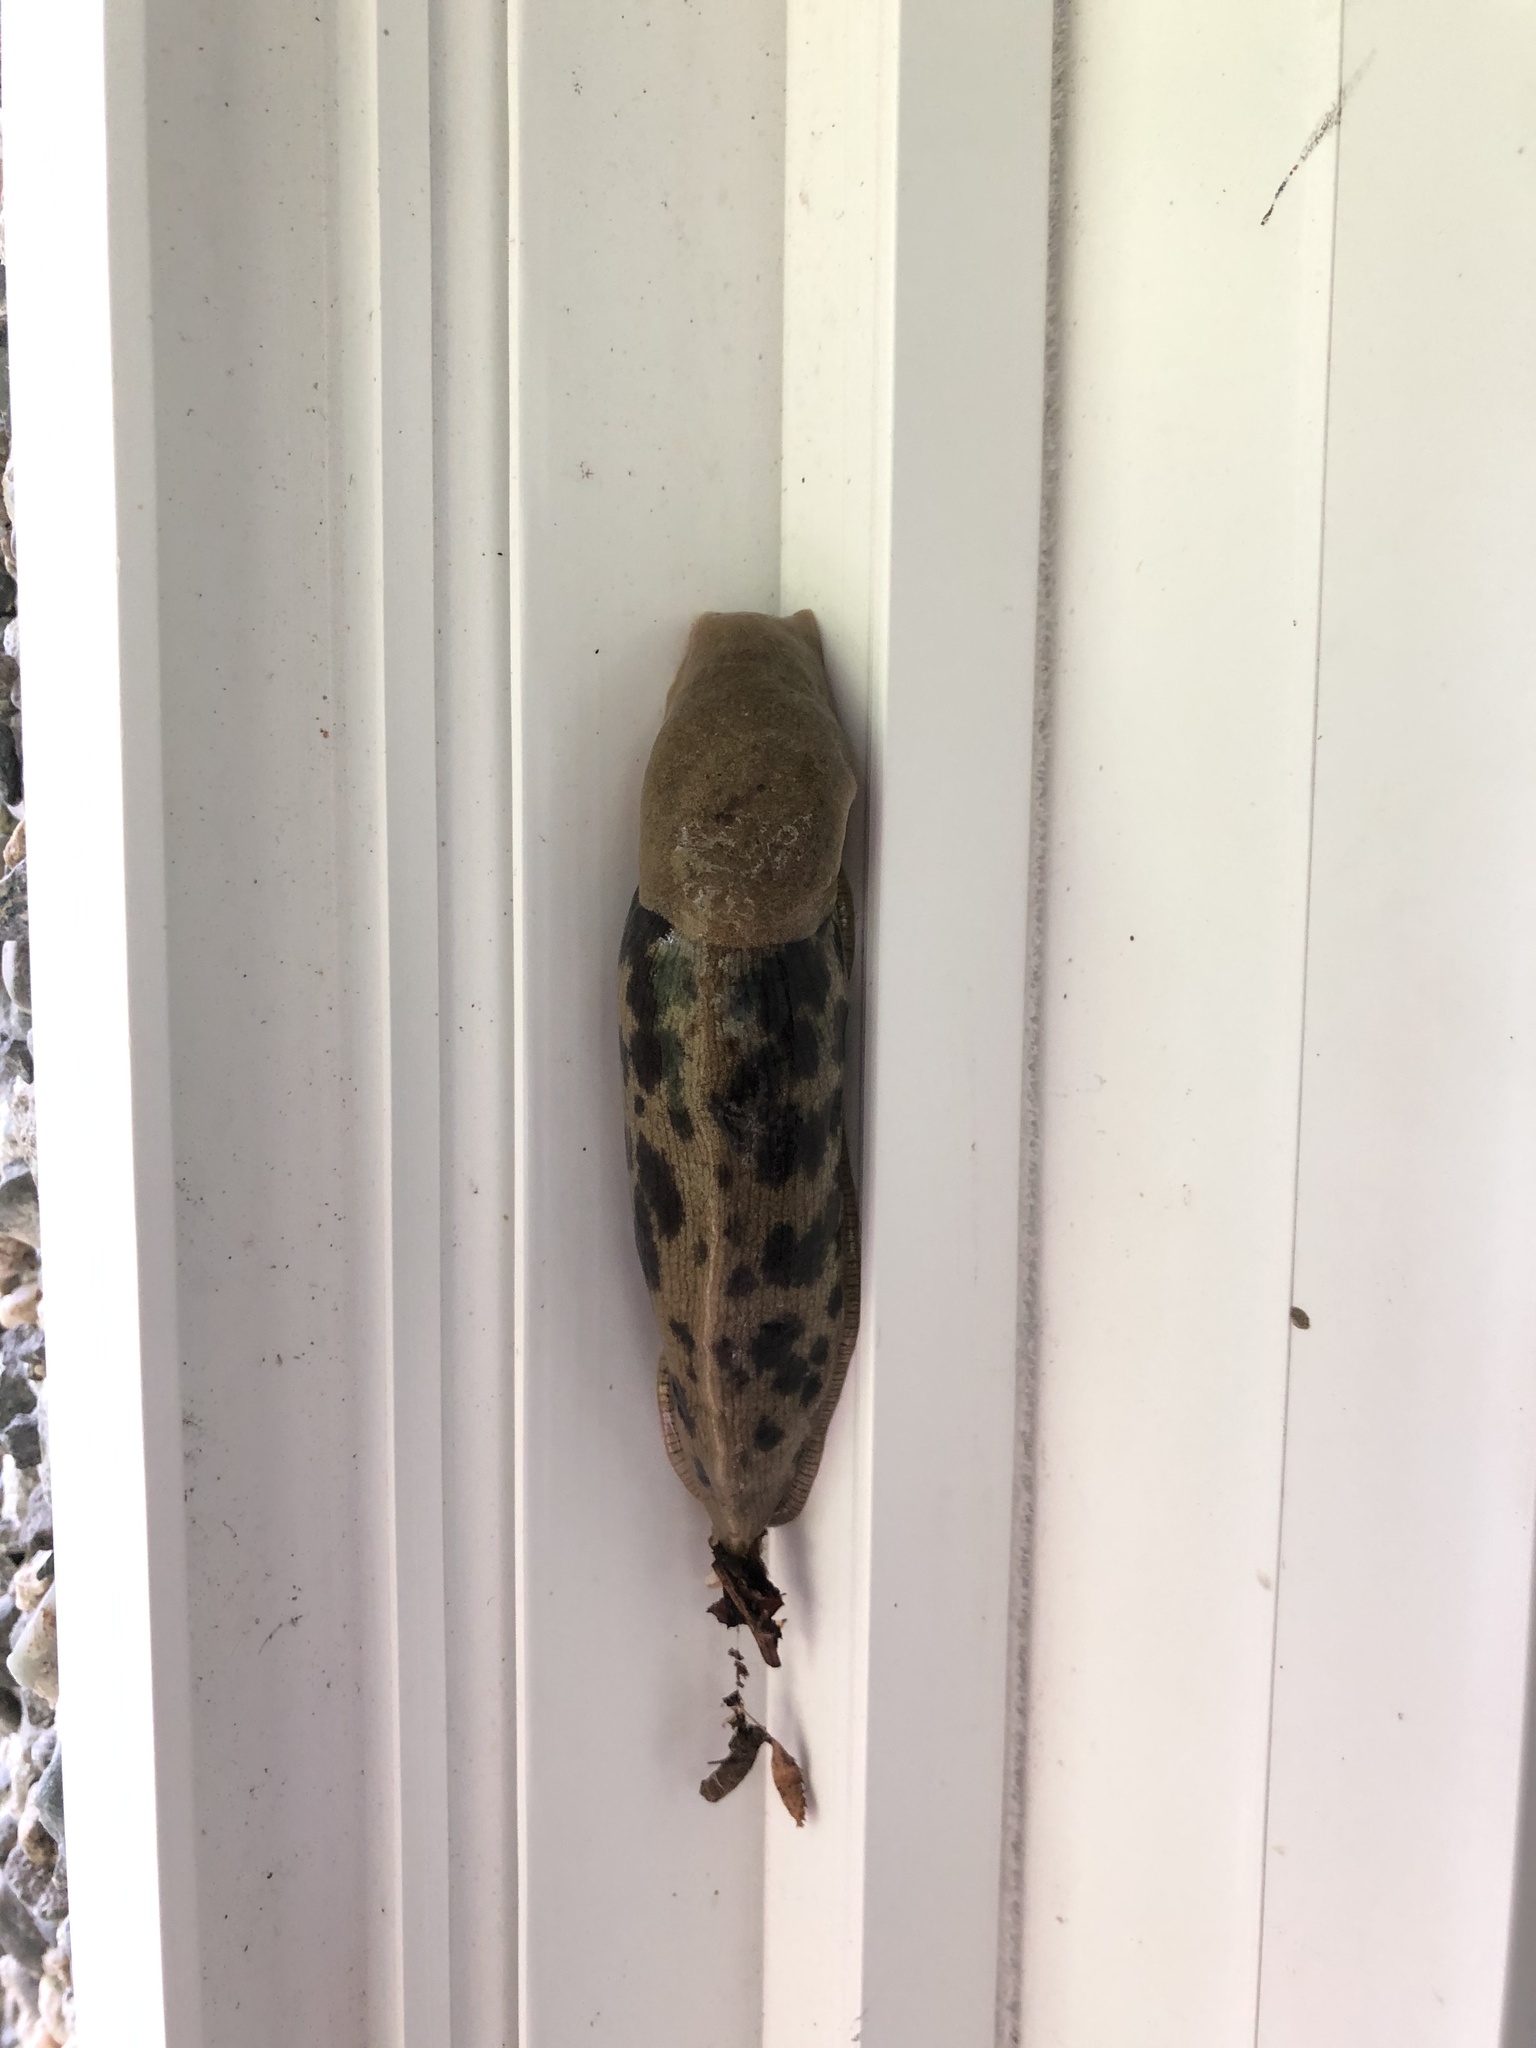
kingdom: Animalia
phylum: Mollusca
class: Gastropoda
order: Stylommatophora
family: Ariolimacidae
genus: Ariolimax
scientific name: Ariolimax columbianus
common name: Pacific banana slug
